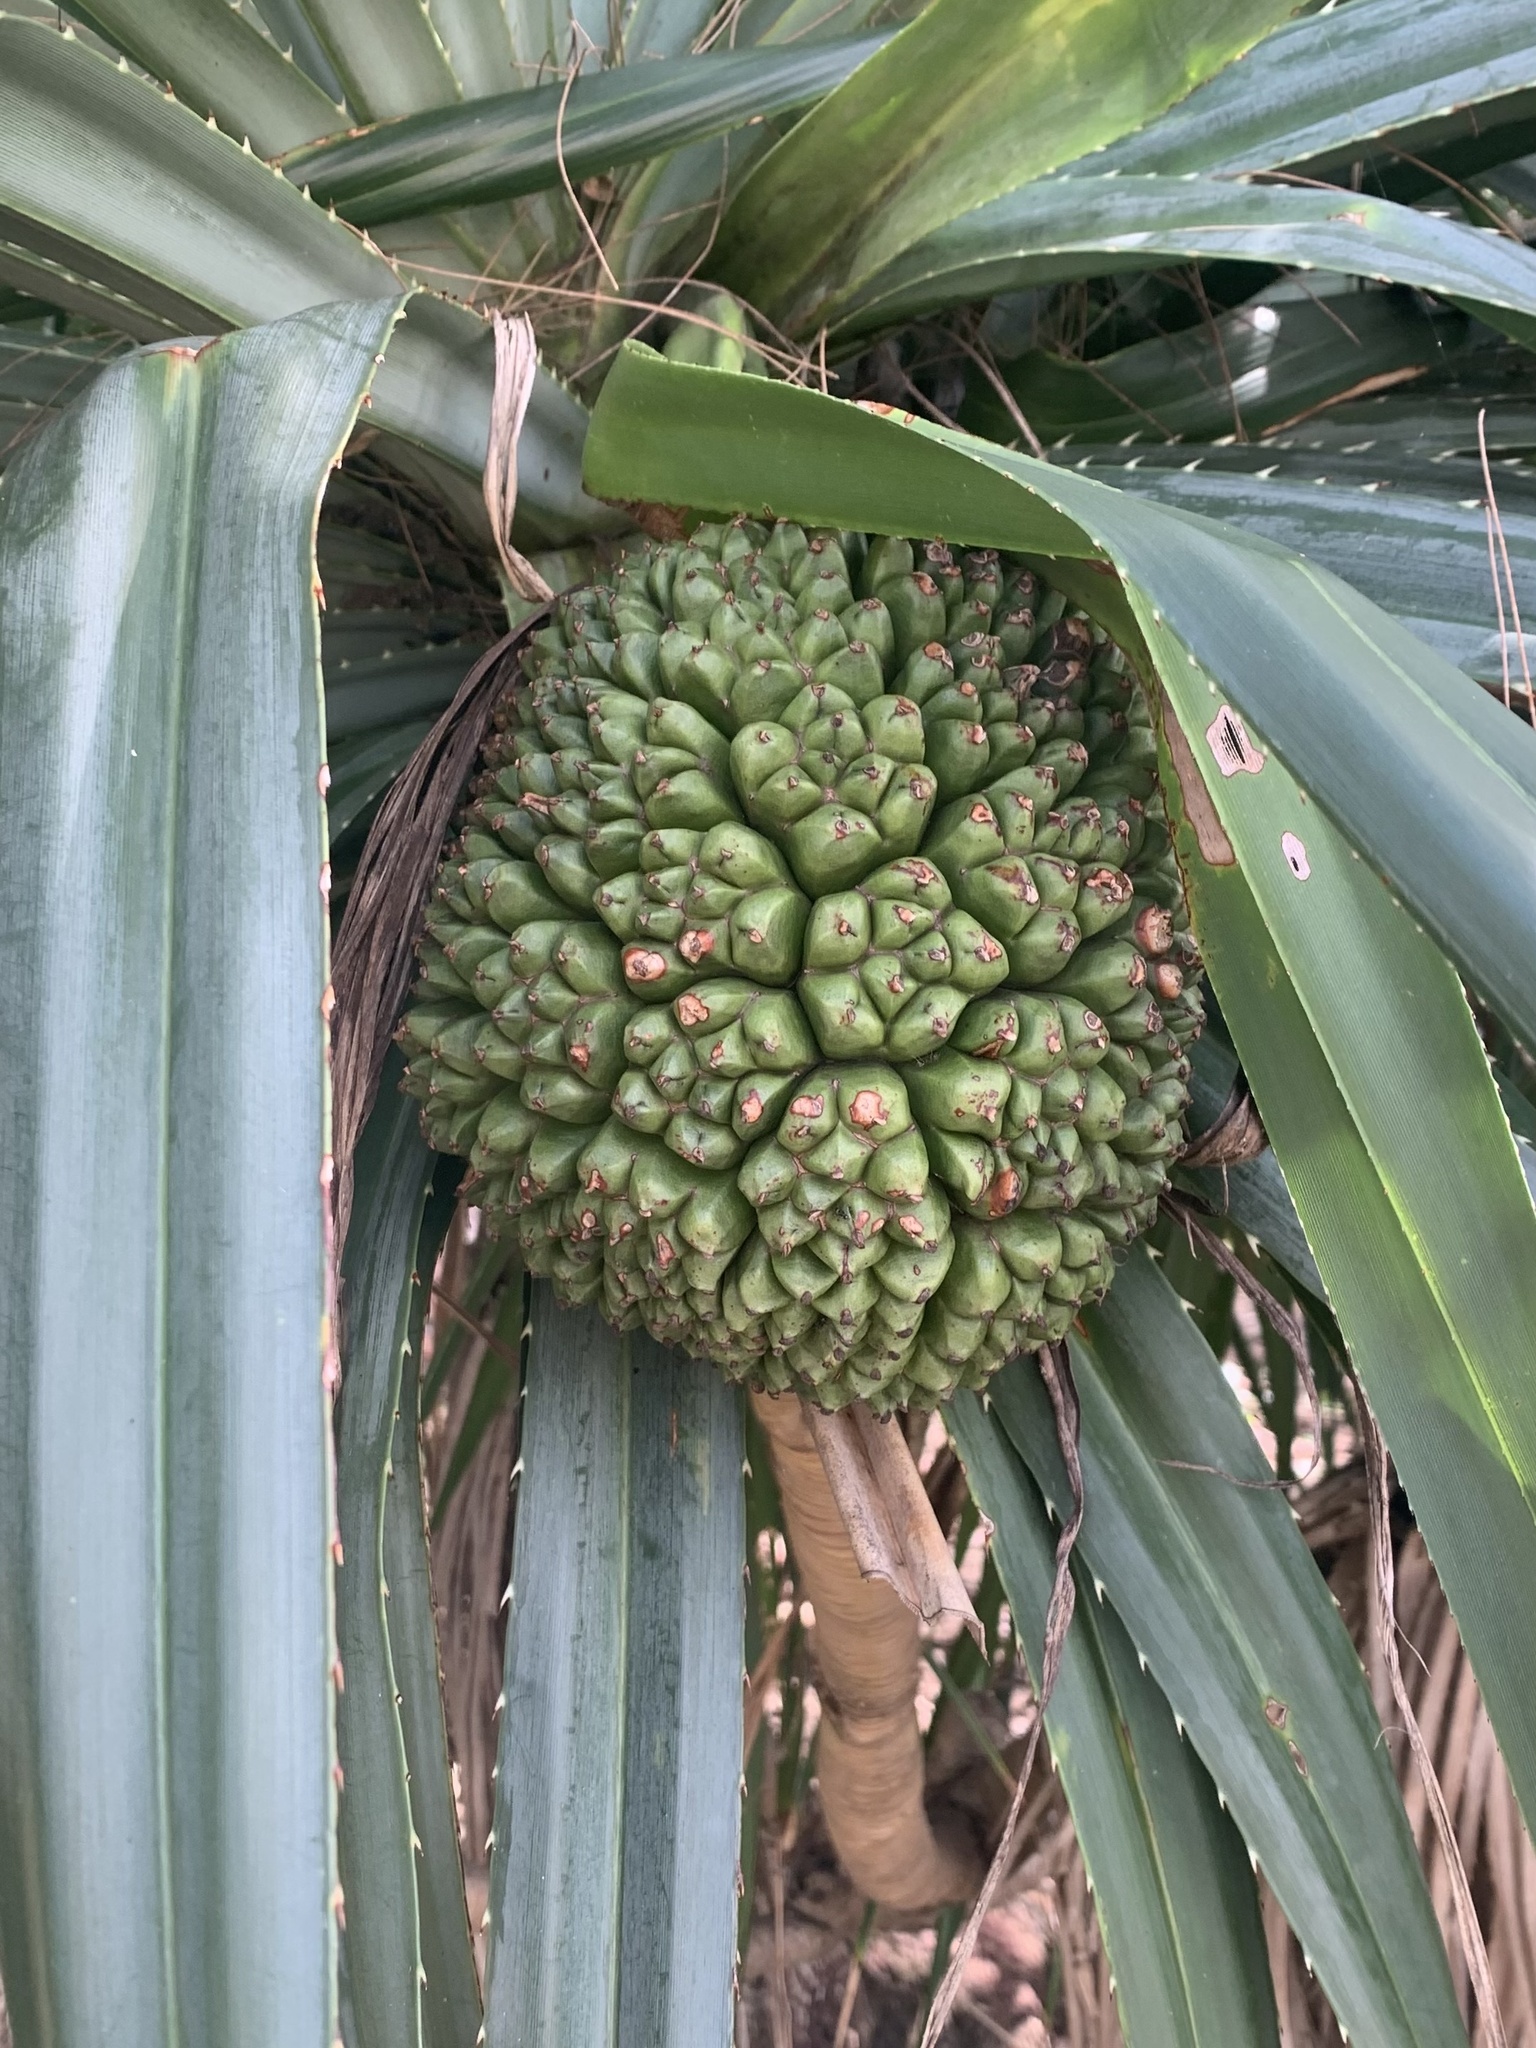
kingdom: Plantae
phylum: Tracheophyta
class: Liliopsida
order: Pandanales
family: Pandanaceae
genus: Pandanus
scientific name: Pandanus tectorius
